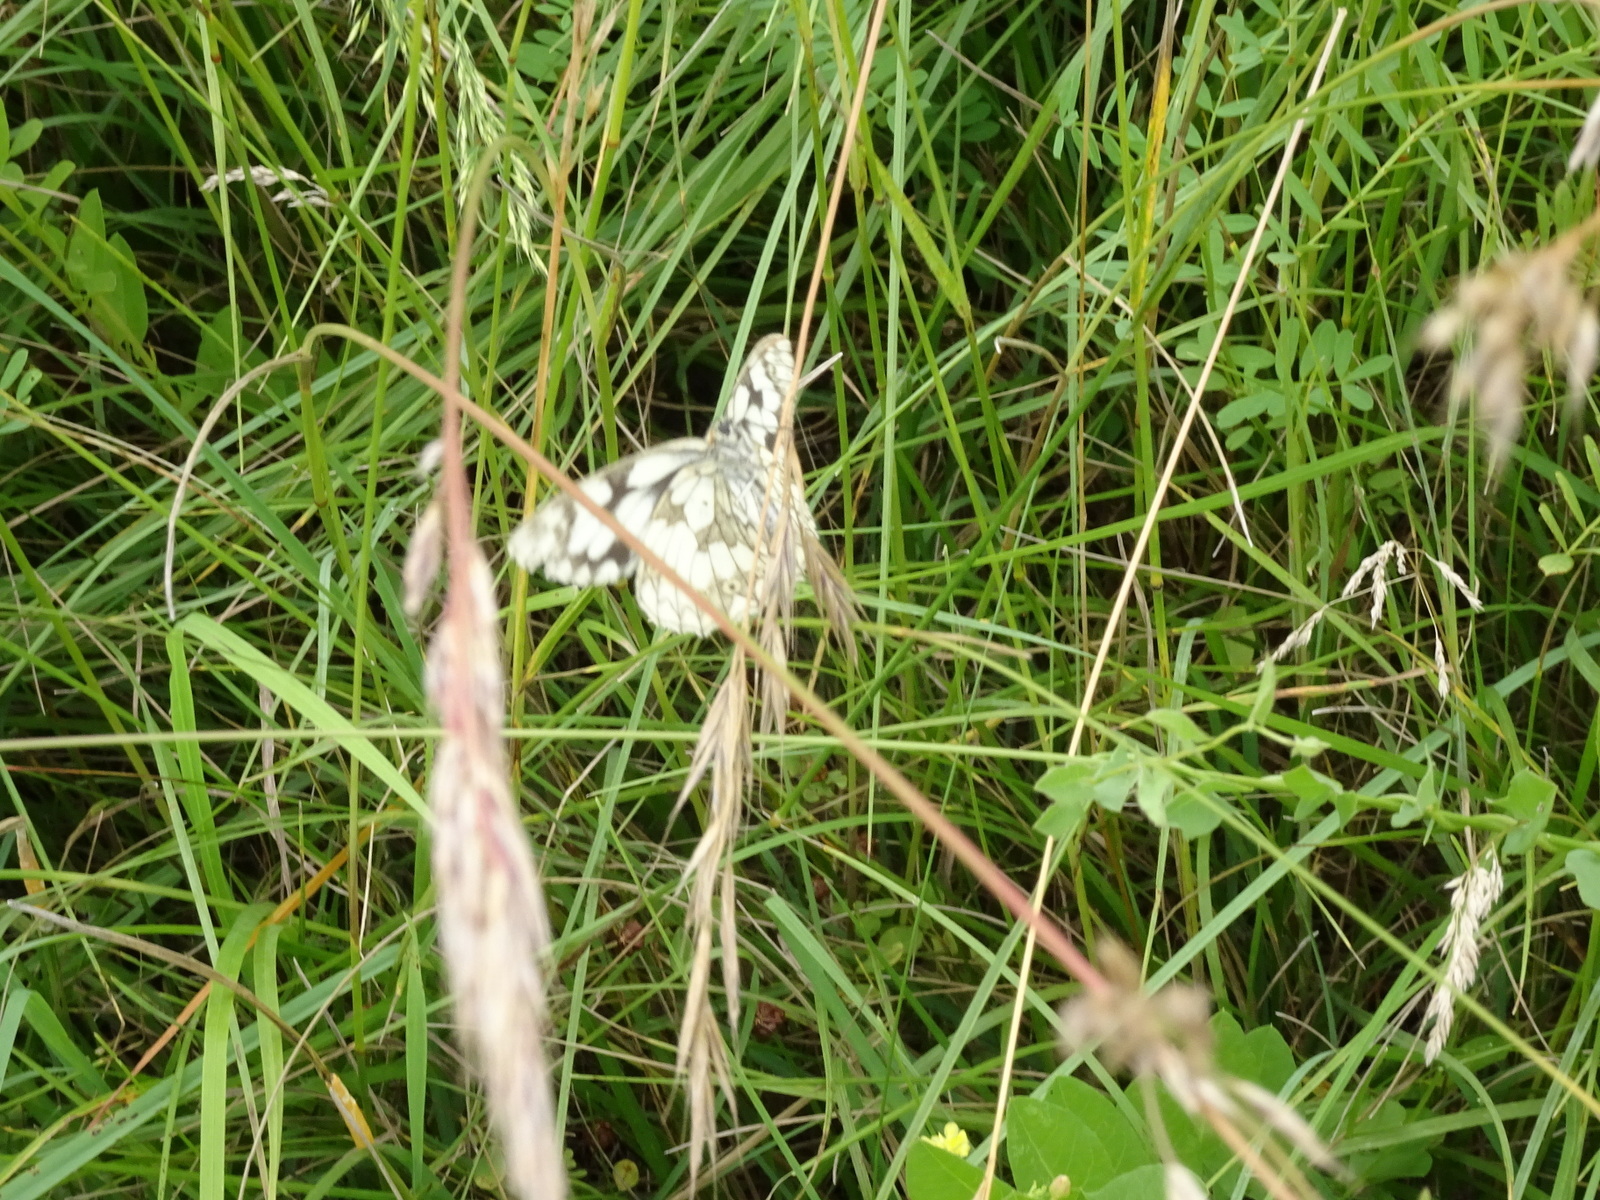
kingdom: Animalia
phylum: Arthropoda
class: Insecta
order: Lepidoptera
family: Nymphalidae
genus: Melanargia
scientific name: Melanargia galathea
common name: Marbled white
